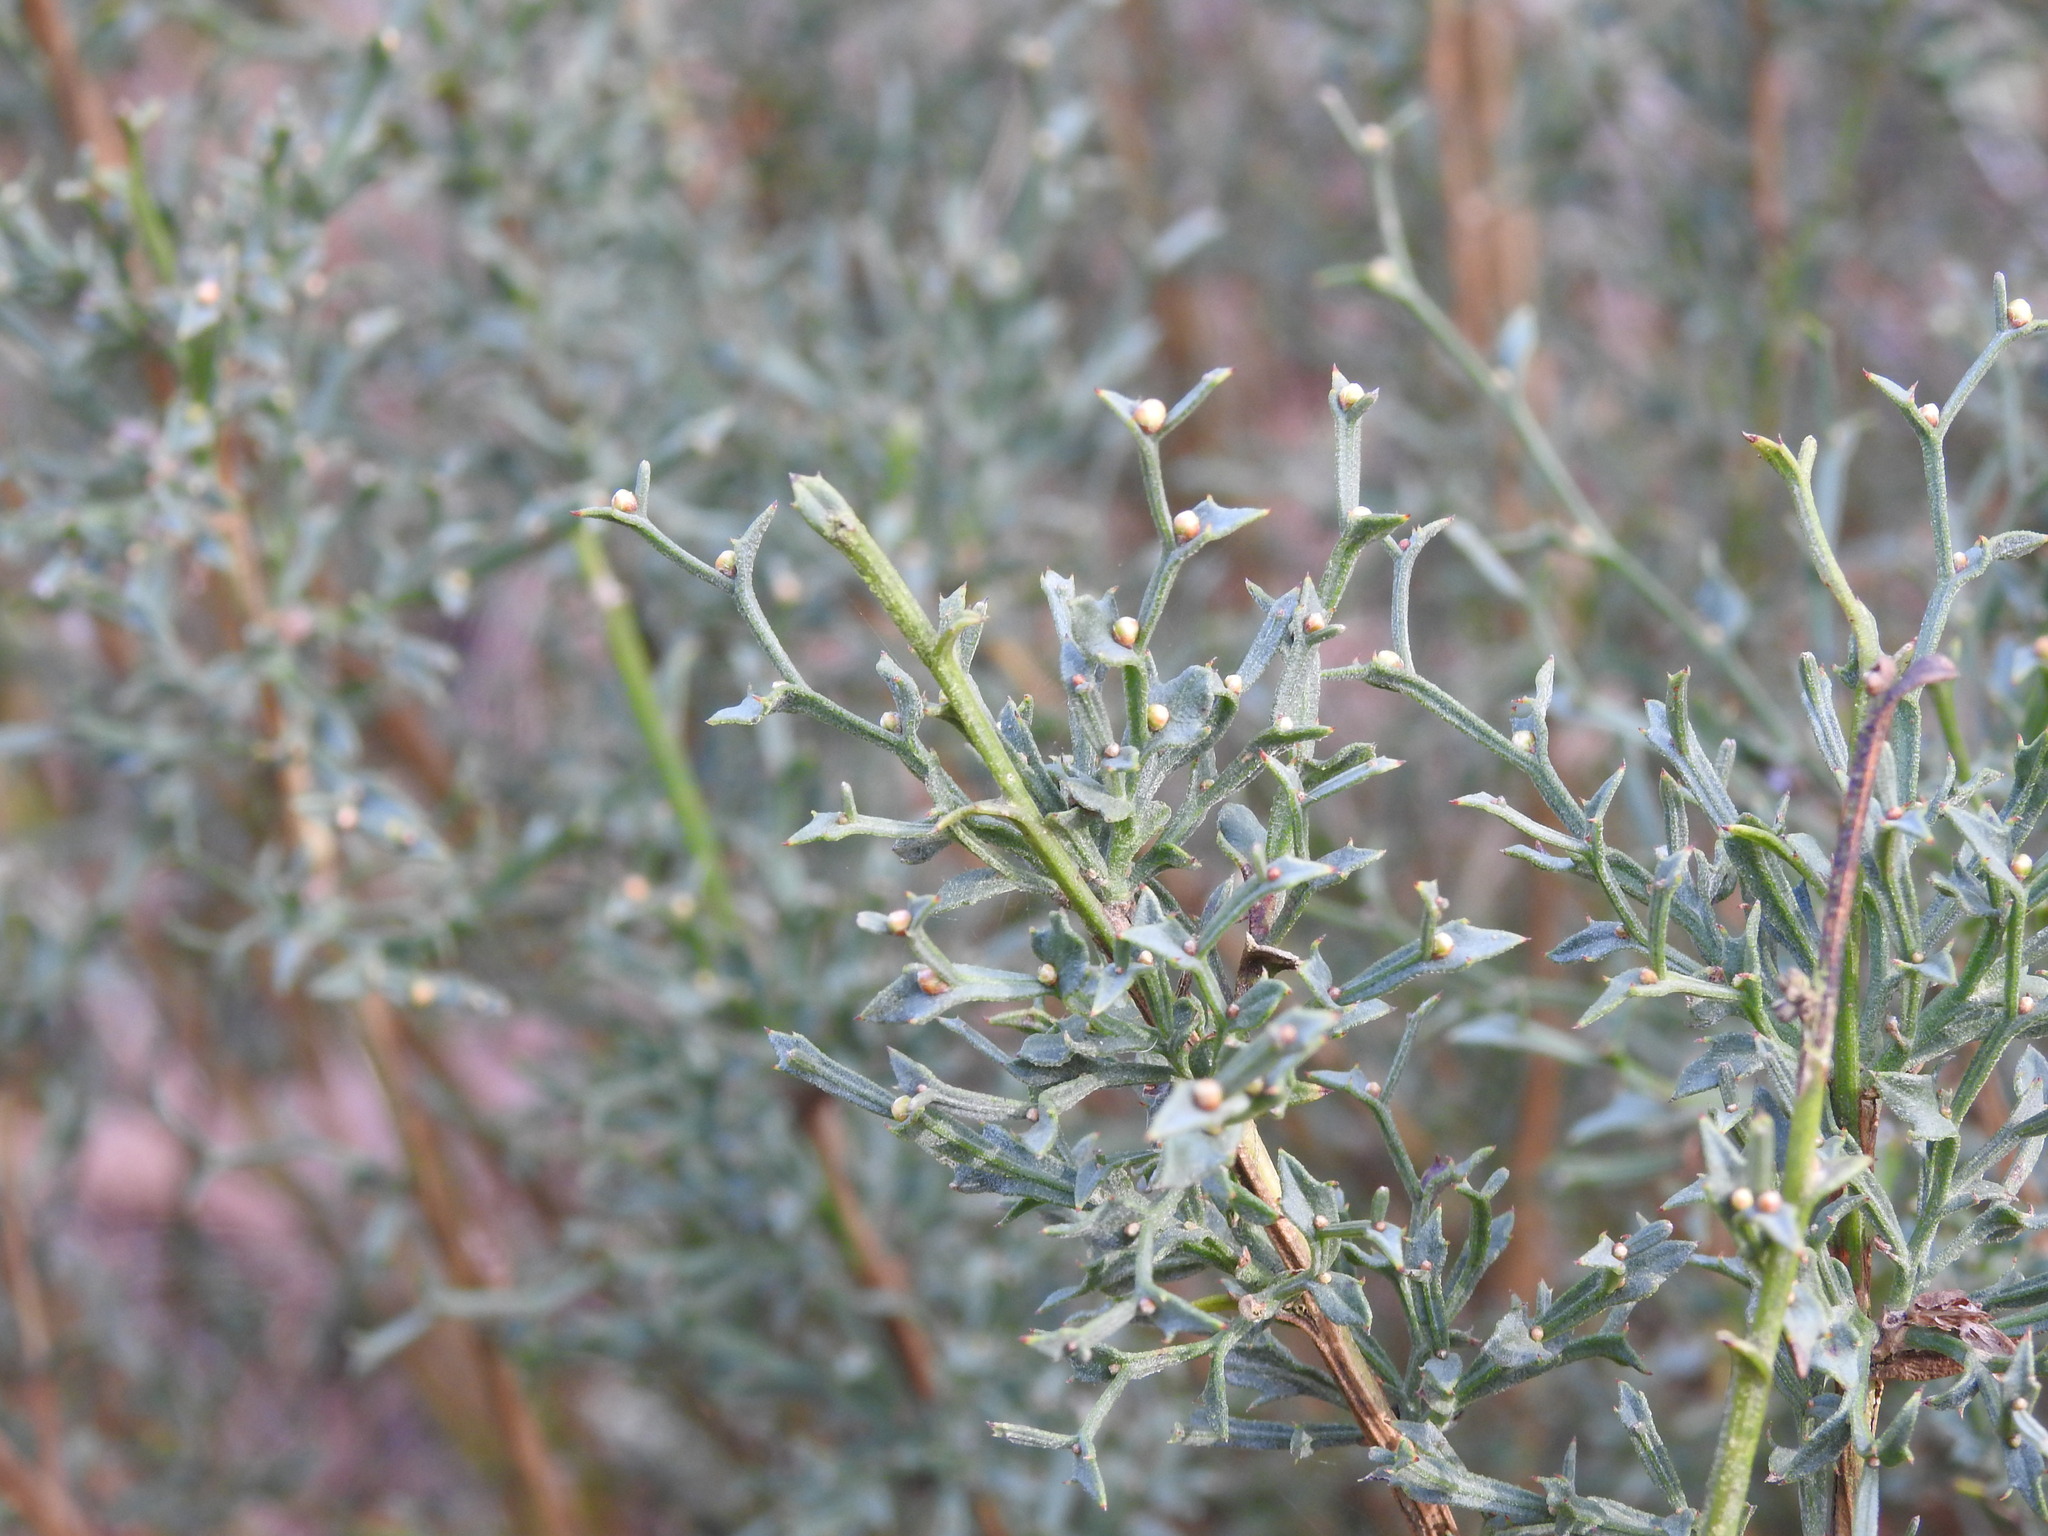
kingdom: Plantae
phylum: Tracheophyta
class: Magnoliopsida
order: Fabales
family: Fabaceae
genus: Genista
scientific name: Genista tridentata
